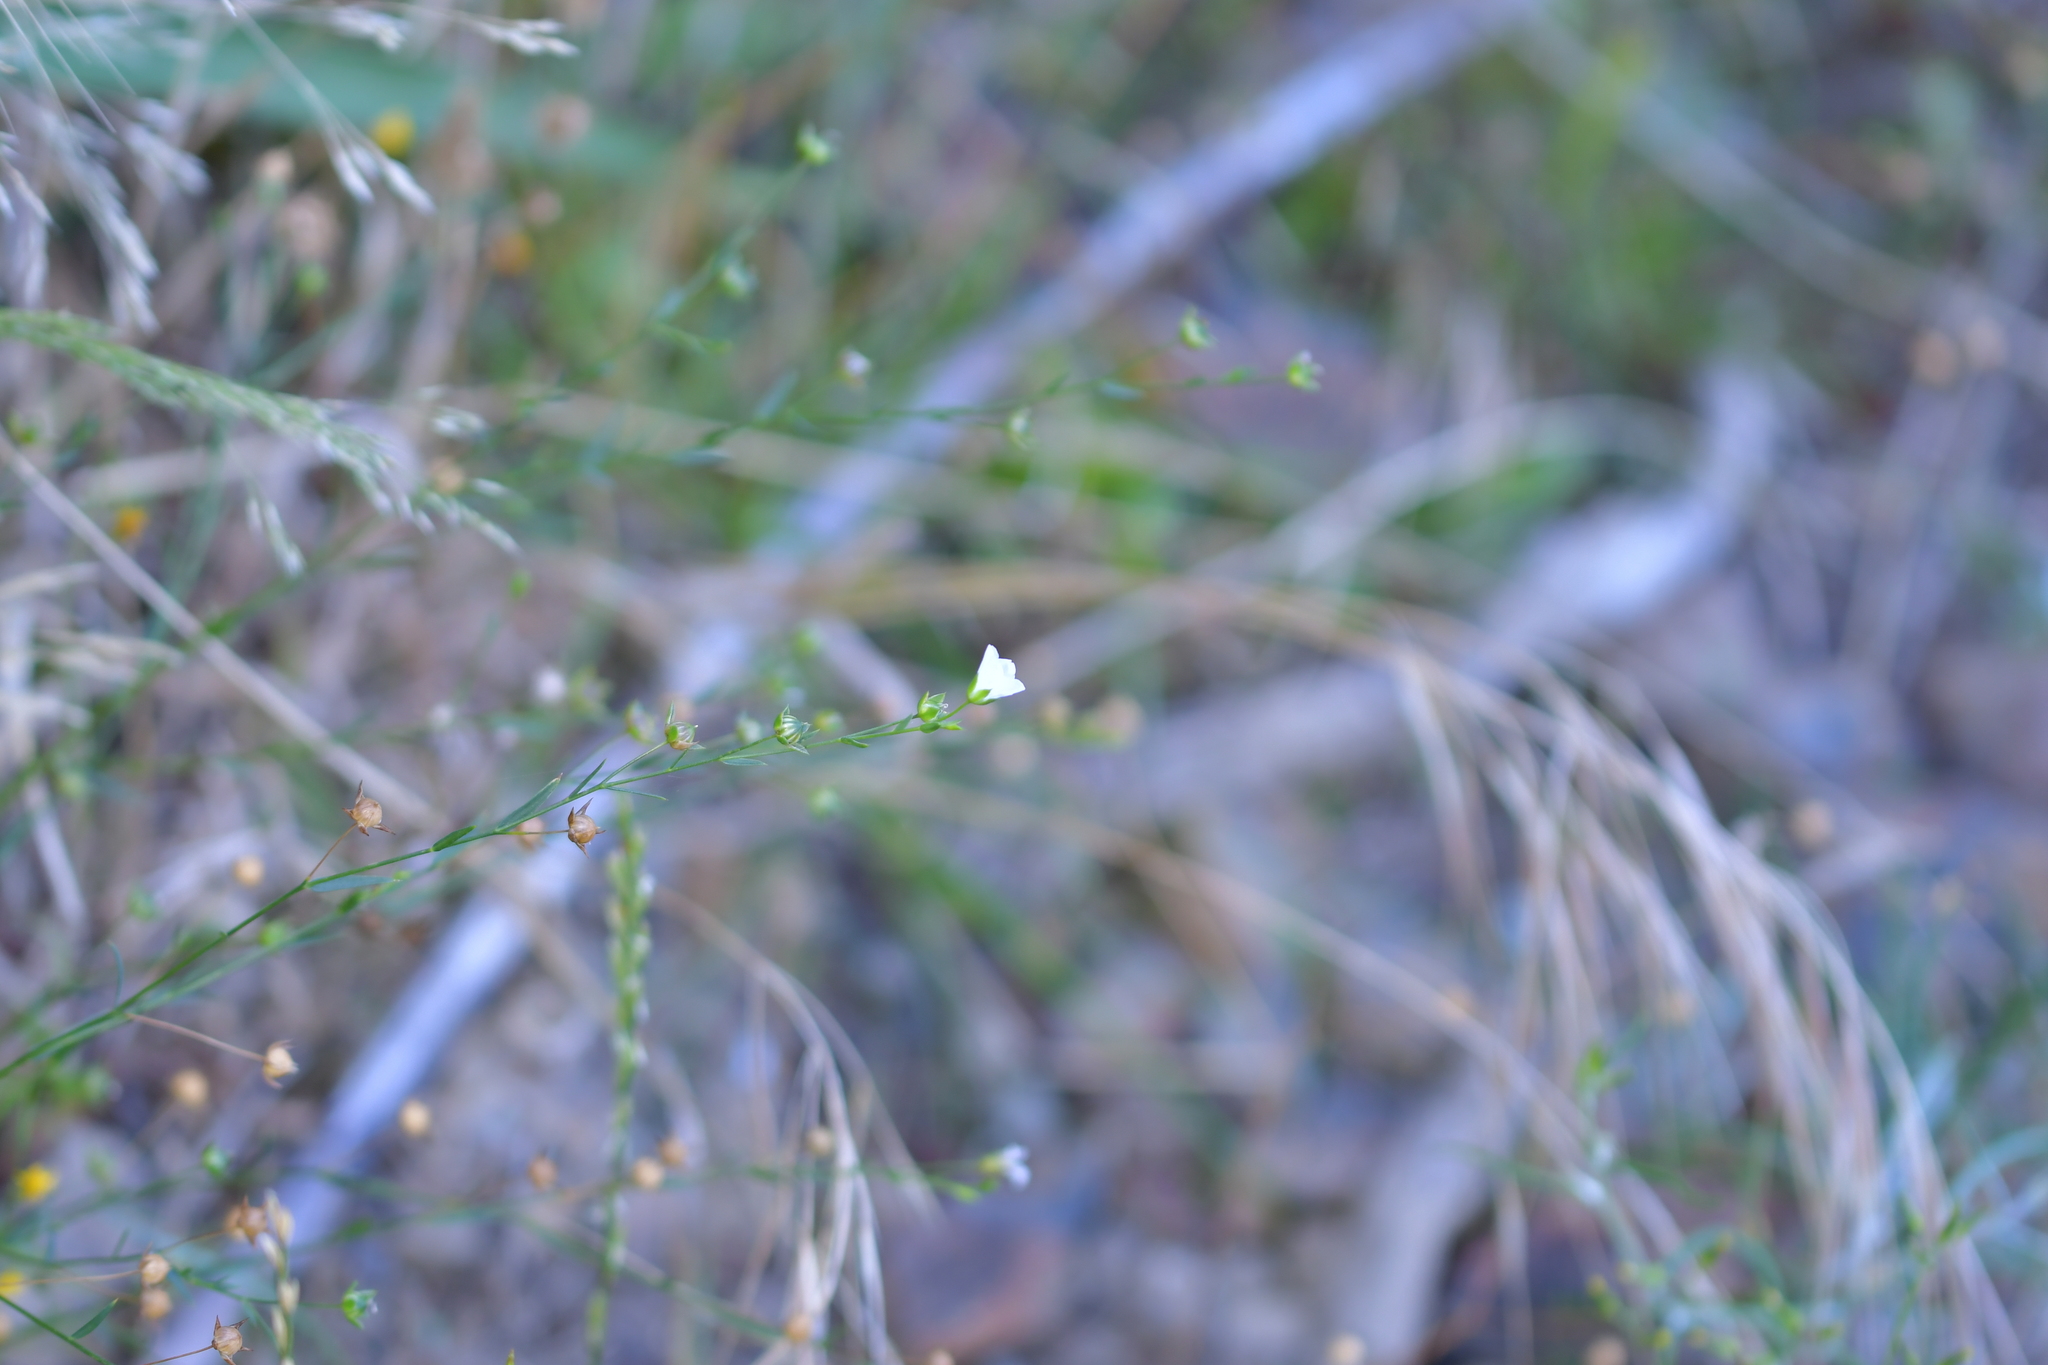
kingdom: Plantae
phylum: Tracheophyta
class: Magnoliopsida
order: Malpighiales
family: Linaceae
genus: Linum
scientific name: Linum bienne
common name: Pale flax
